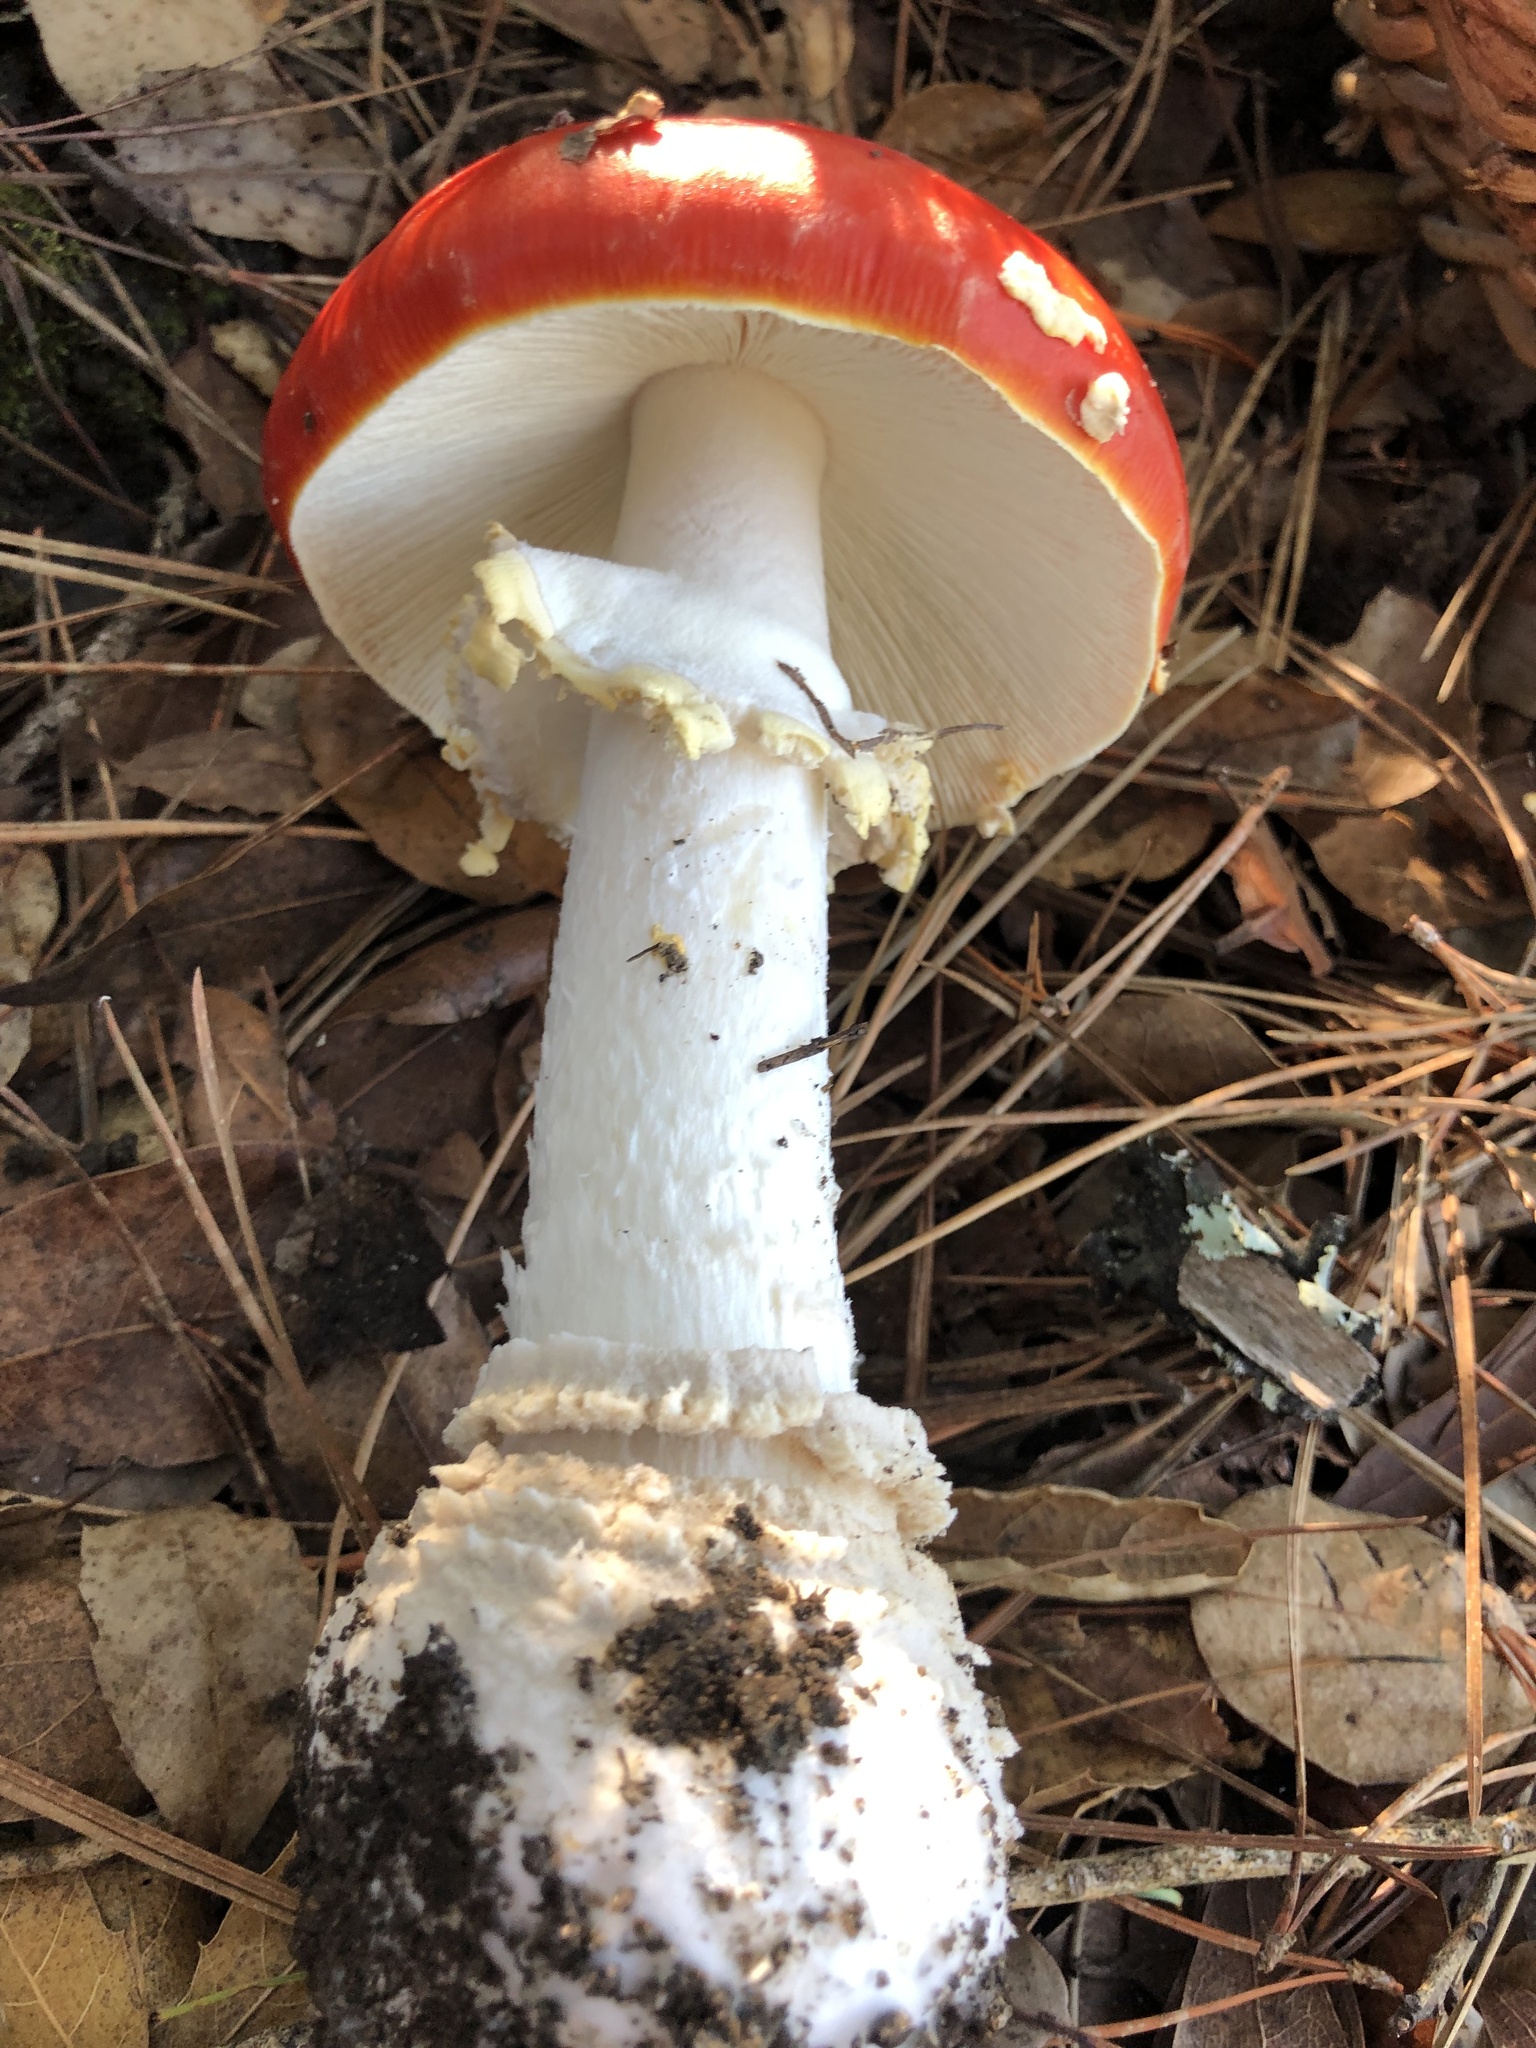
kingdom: Fungi
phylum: Basidiomycota
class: Agaricomycetes
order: Agaricales
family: Amanitaceae
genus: Amanita
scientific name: Amanita muscaria
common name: Fly agaric
